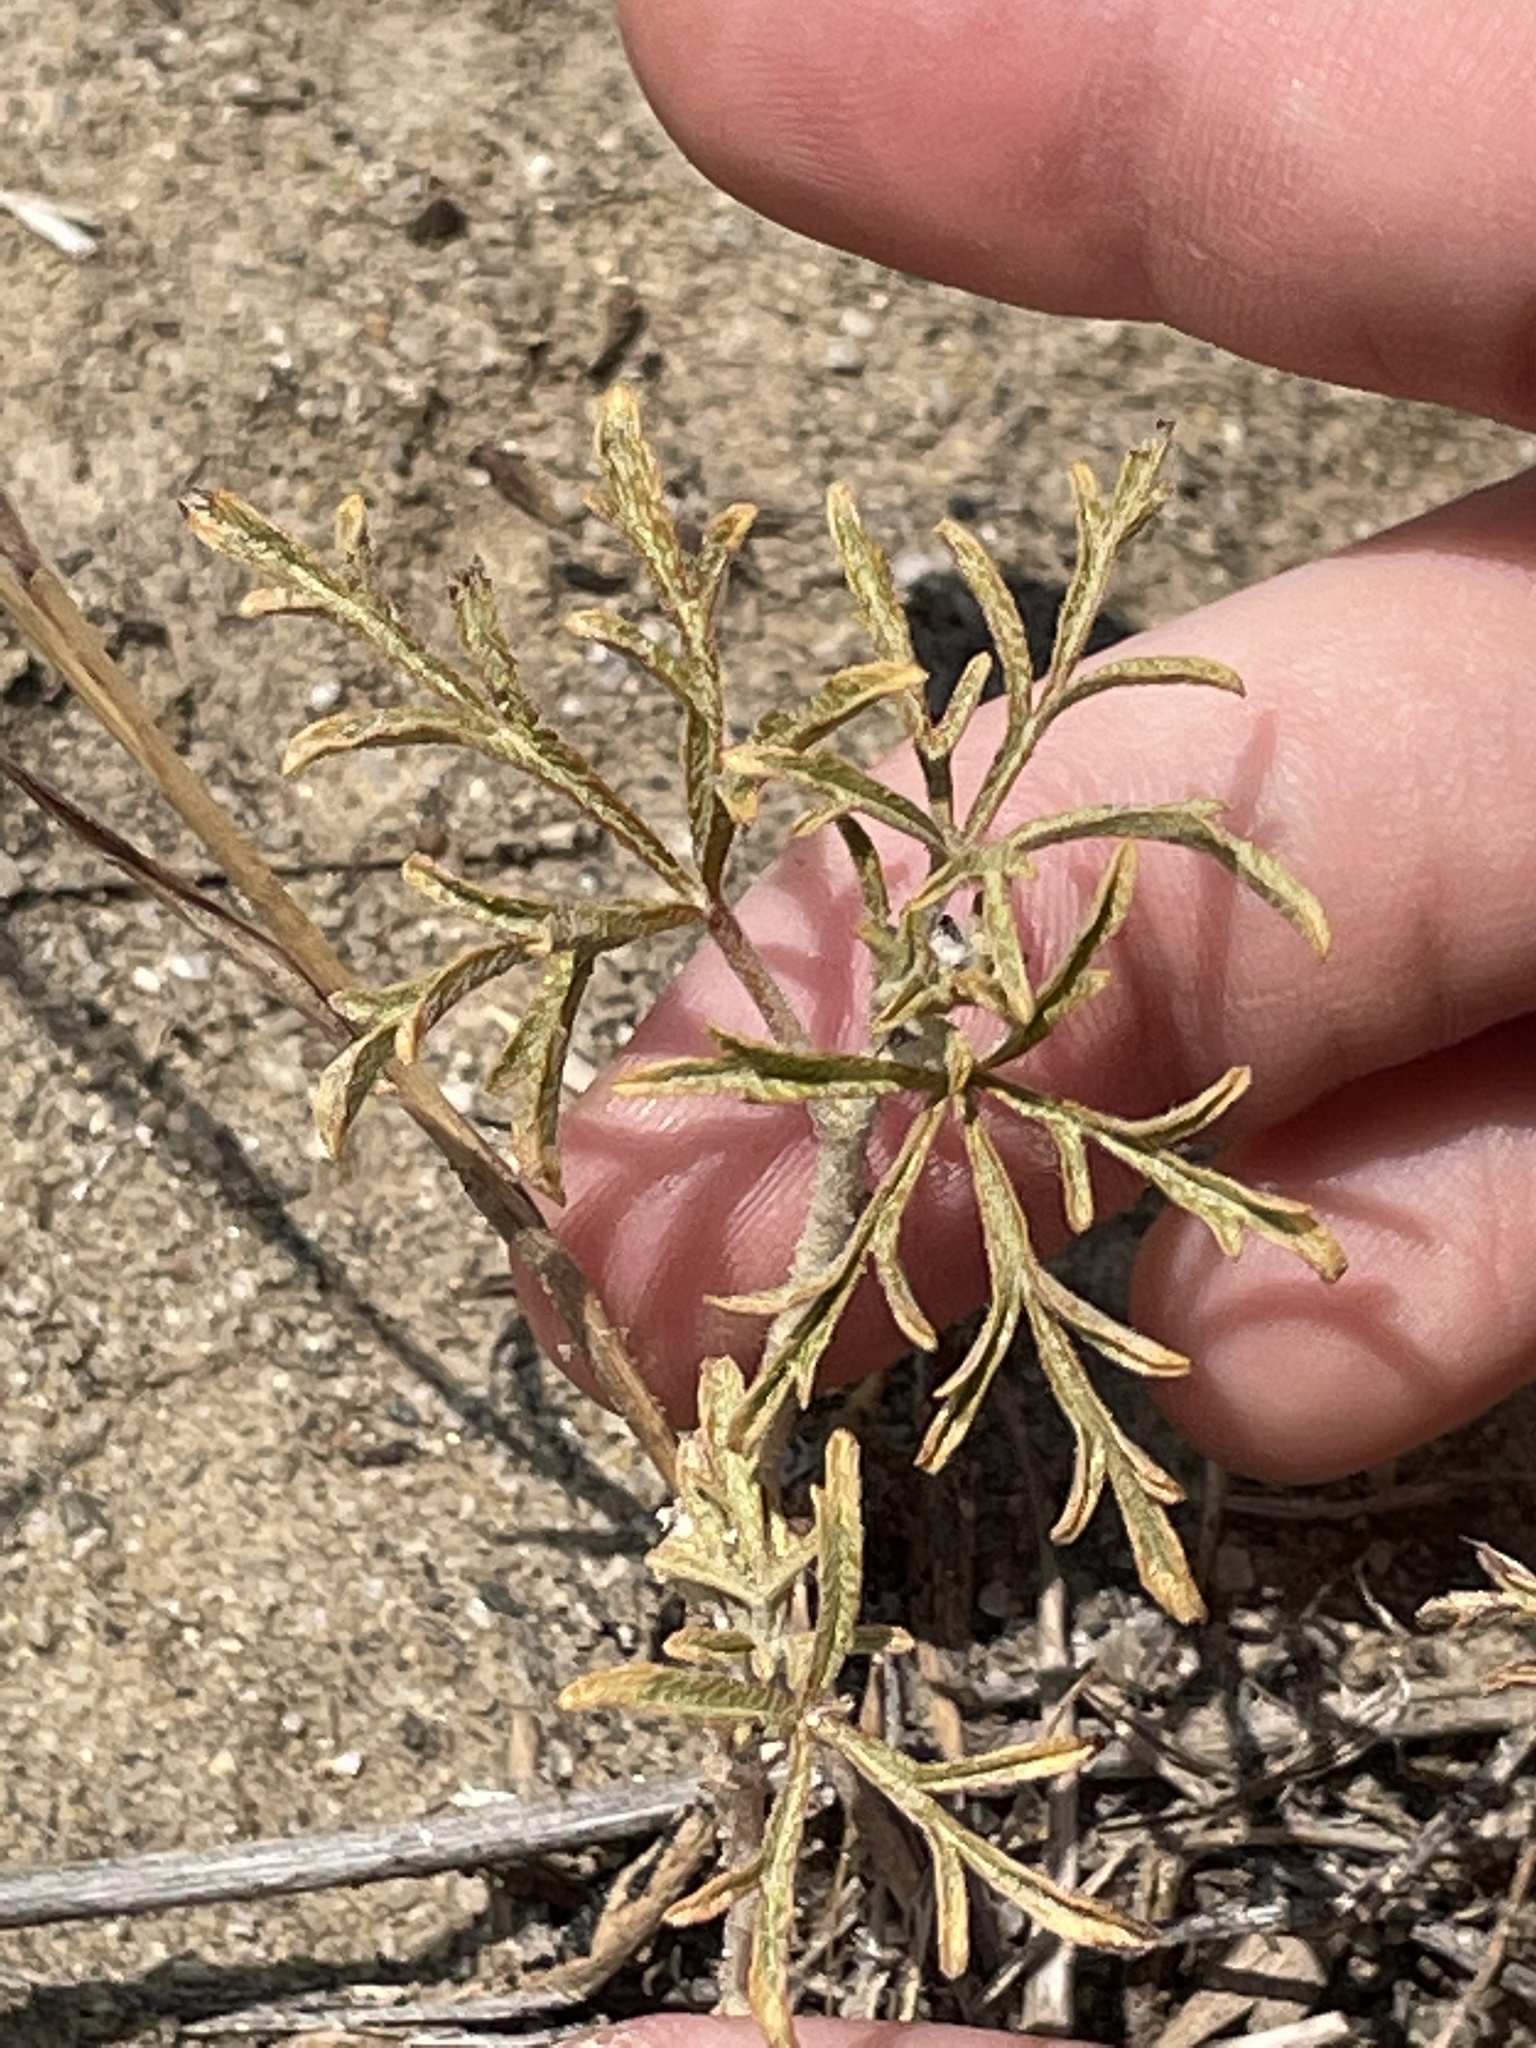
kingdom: Plantae
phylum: Tracheophyta
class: Magnoliopsida
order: Malvales
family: Malvaceae
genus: Sphaeralcea
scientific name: Sphaeralcea coccinea
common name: Moss-rose
